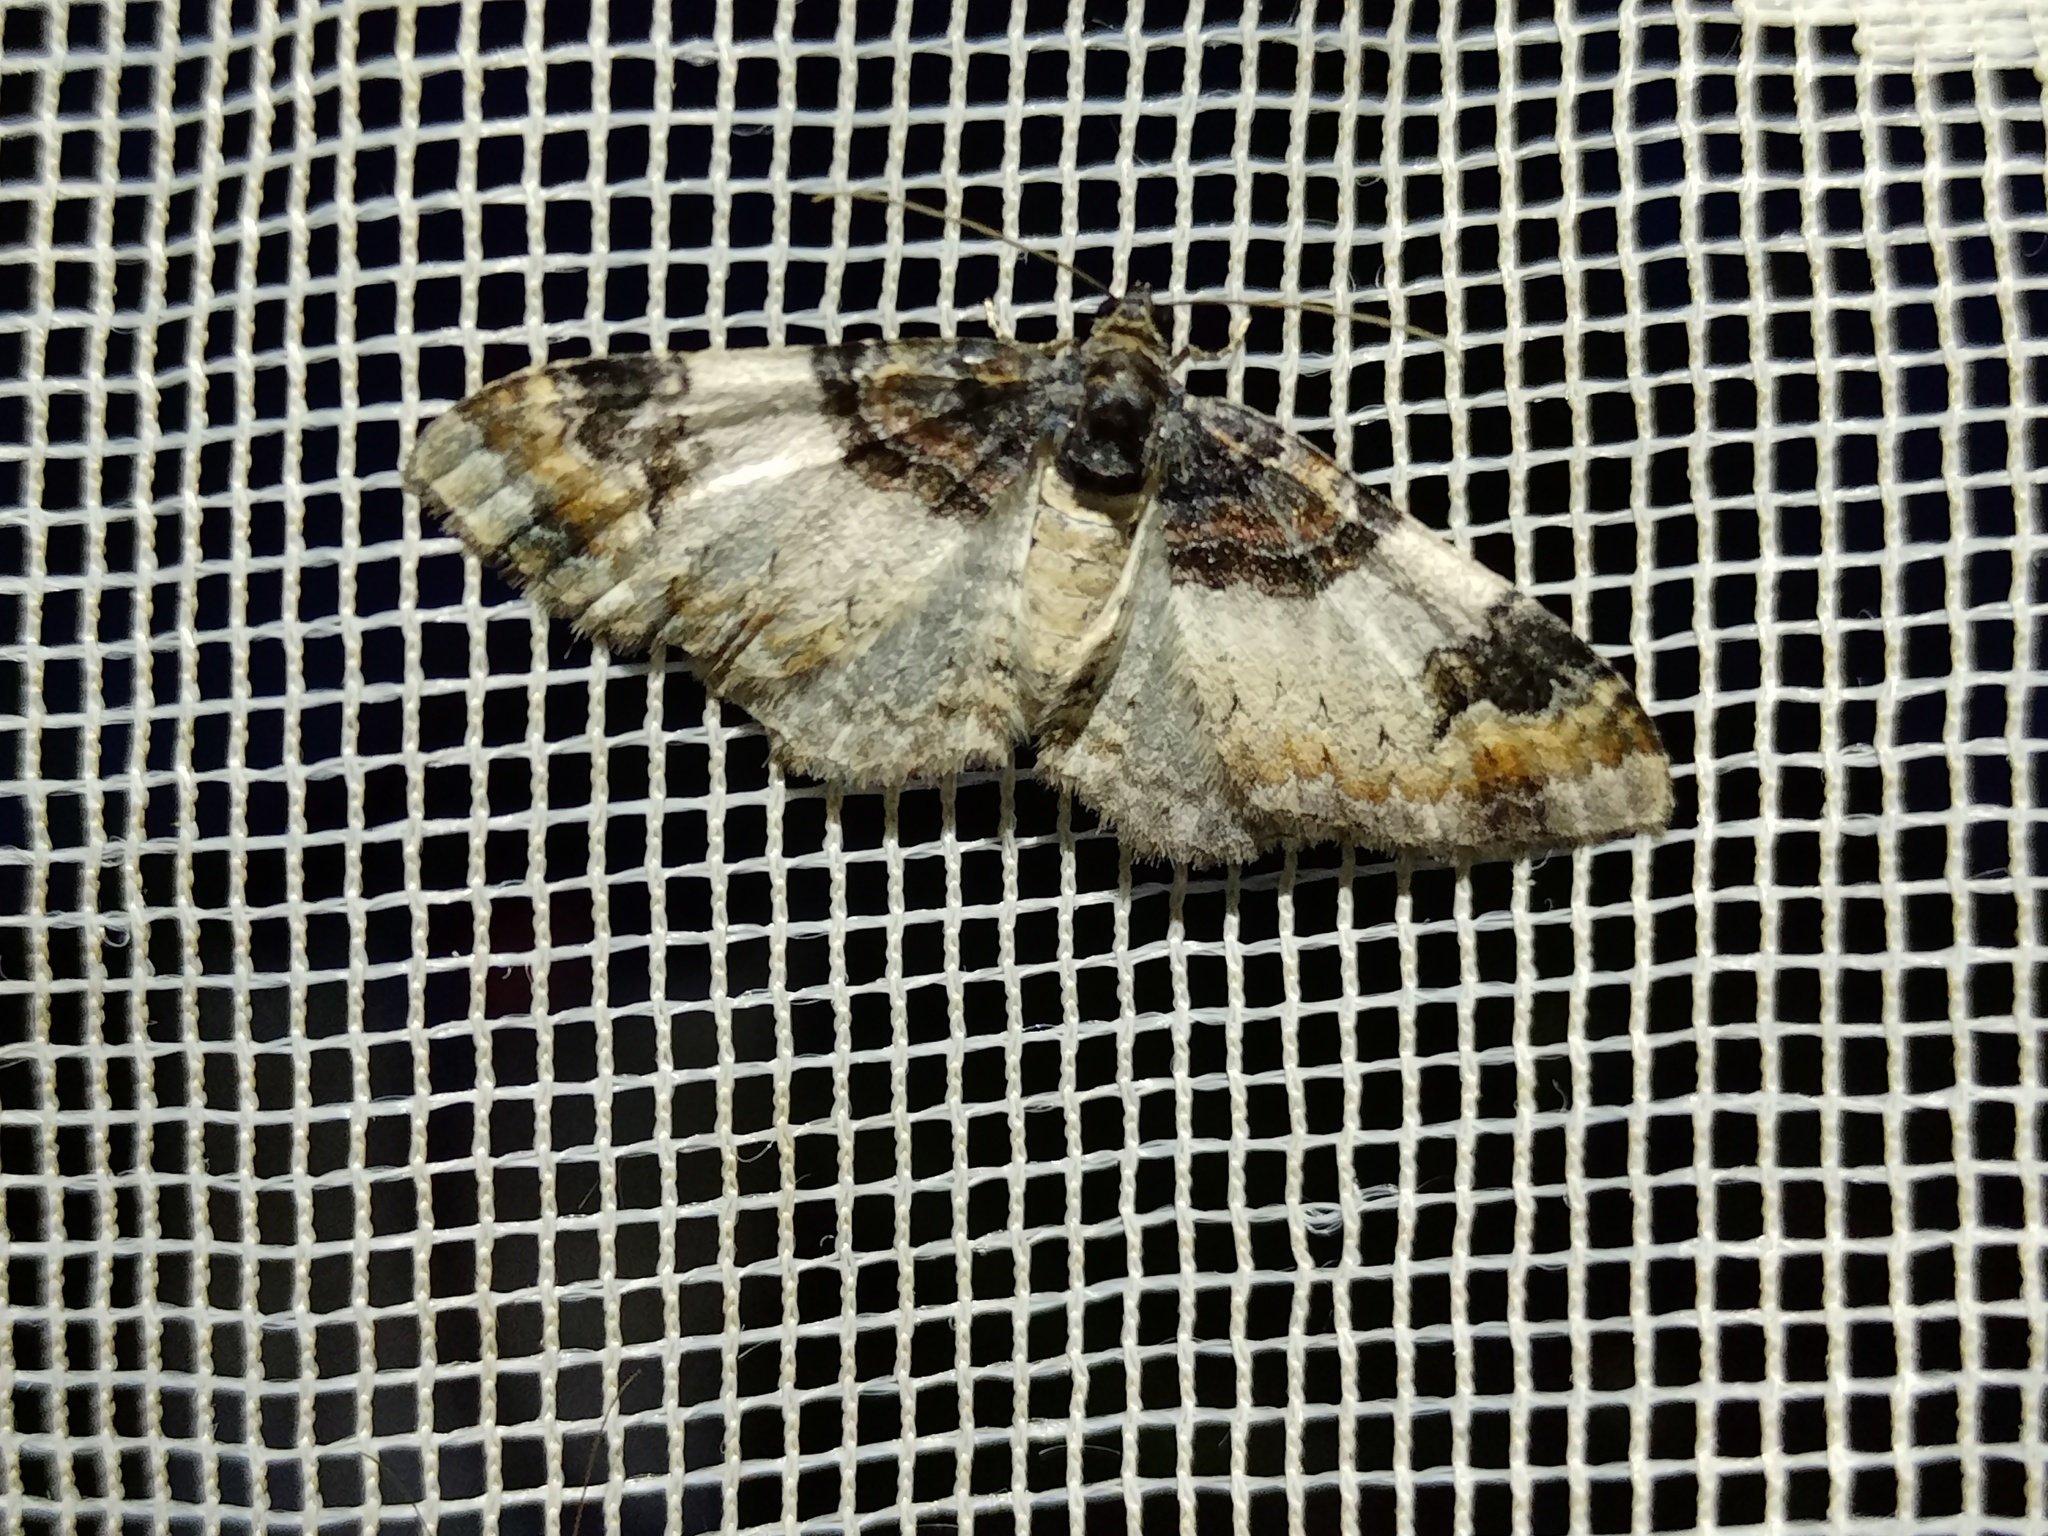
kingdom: Animalia
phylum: Arthropoda
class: Insecta
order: Lepidoptera
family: Geometridae
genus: Catarhoe
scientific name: Catarhoe cuculata
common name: Royal mantle
